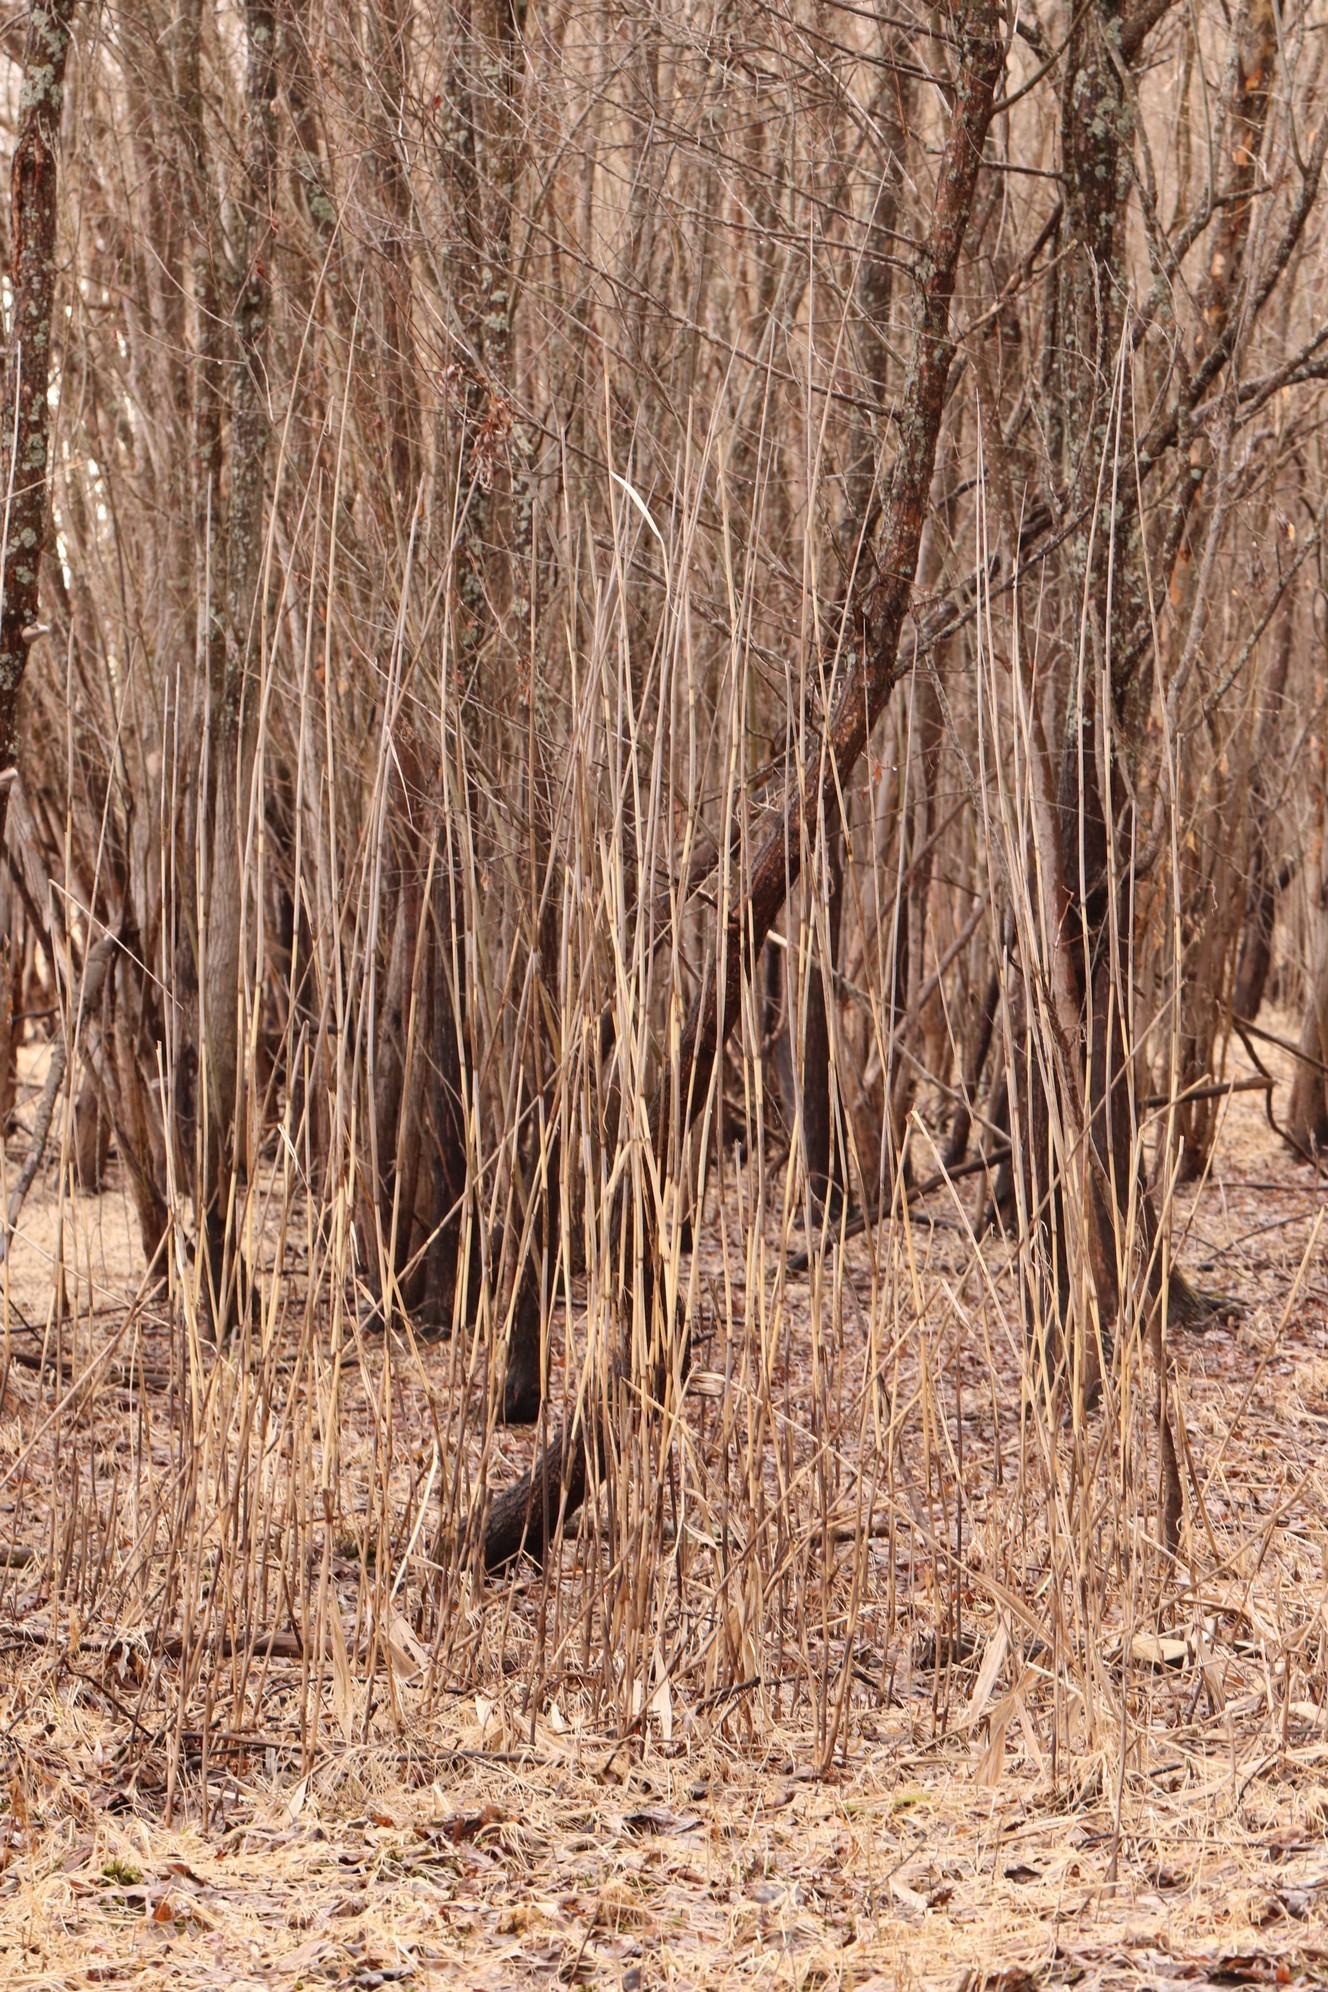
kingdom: Plantae
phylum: Tracheophyta
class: Liliopsida
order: Poales
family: Poaceae
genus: Phragmites
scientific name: Phragmites australis
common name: Common reed
